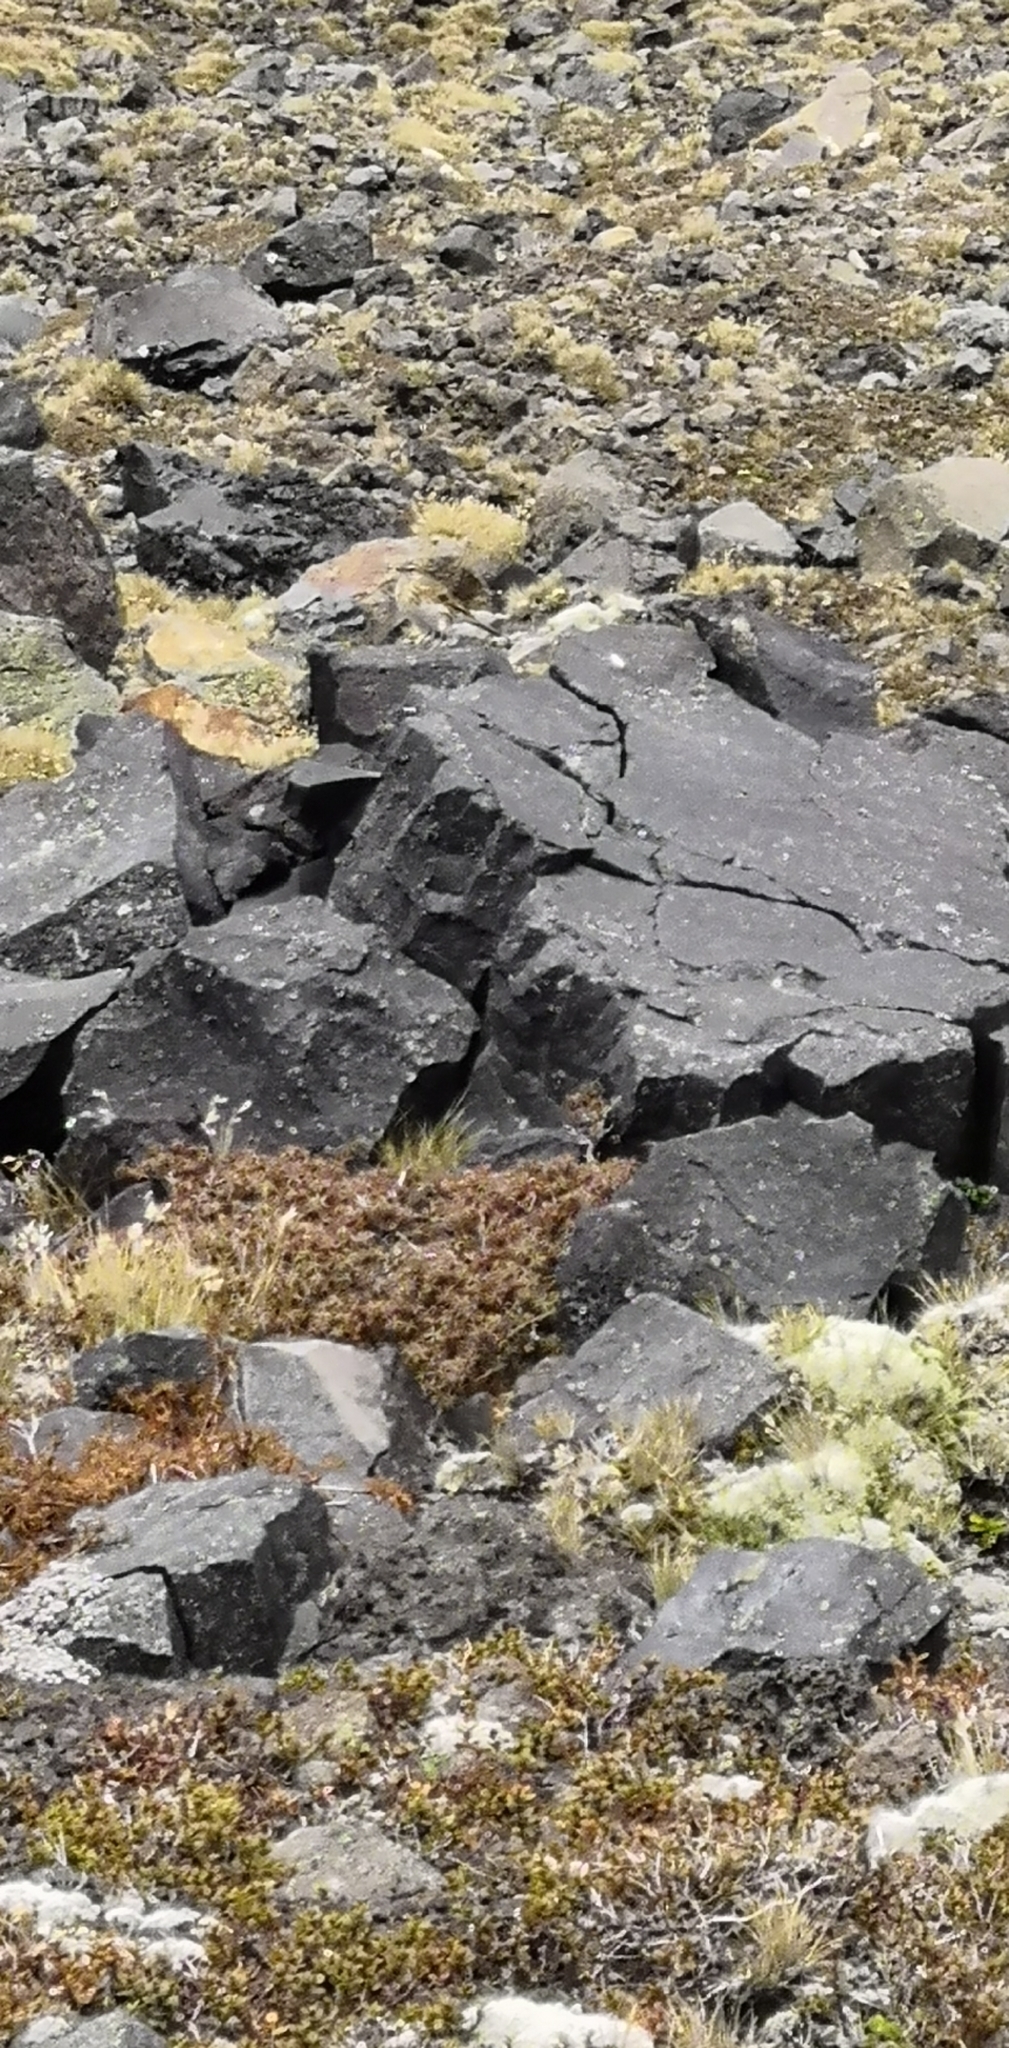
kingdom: Animalia
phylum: Chordata
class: Aves
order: Passeriformes
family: Motacillidae
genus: Anthus
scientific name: Anthus novaeseelandiae
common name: New zealand pipit
